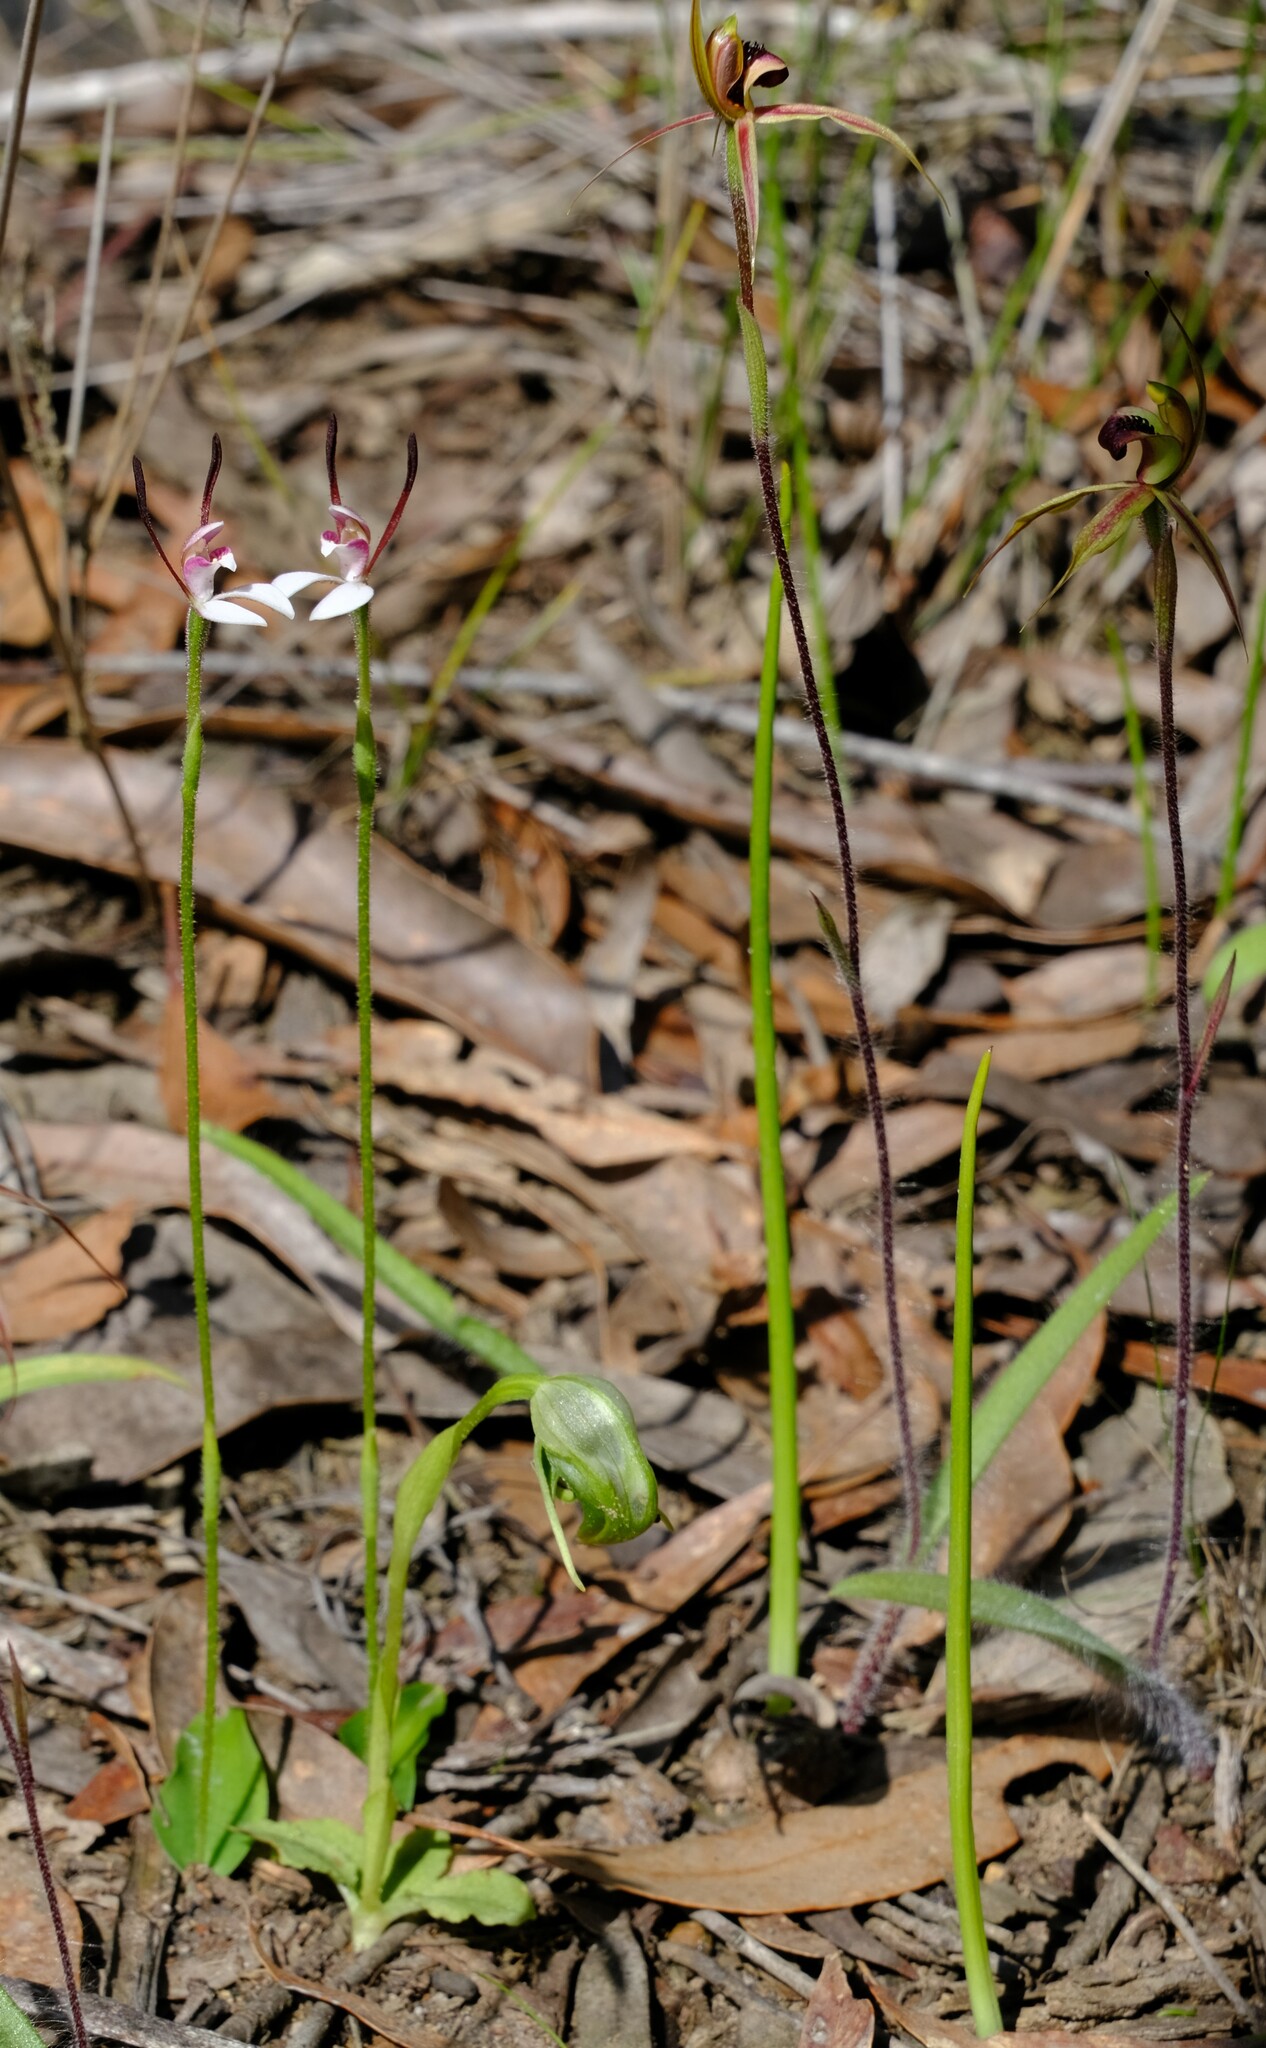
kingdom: Plantae
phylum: Tracheophyta
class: Liliopsida
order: Asparagales
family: Orchidaceae
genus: Leptoceras
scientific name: Leptoceras menziesii
